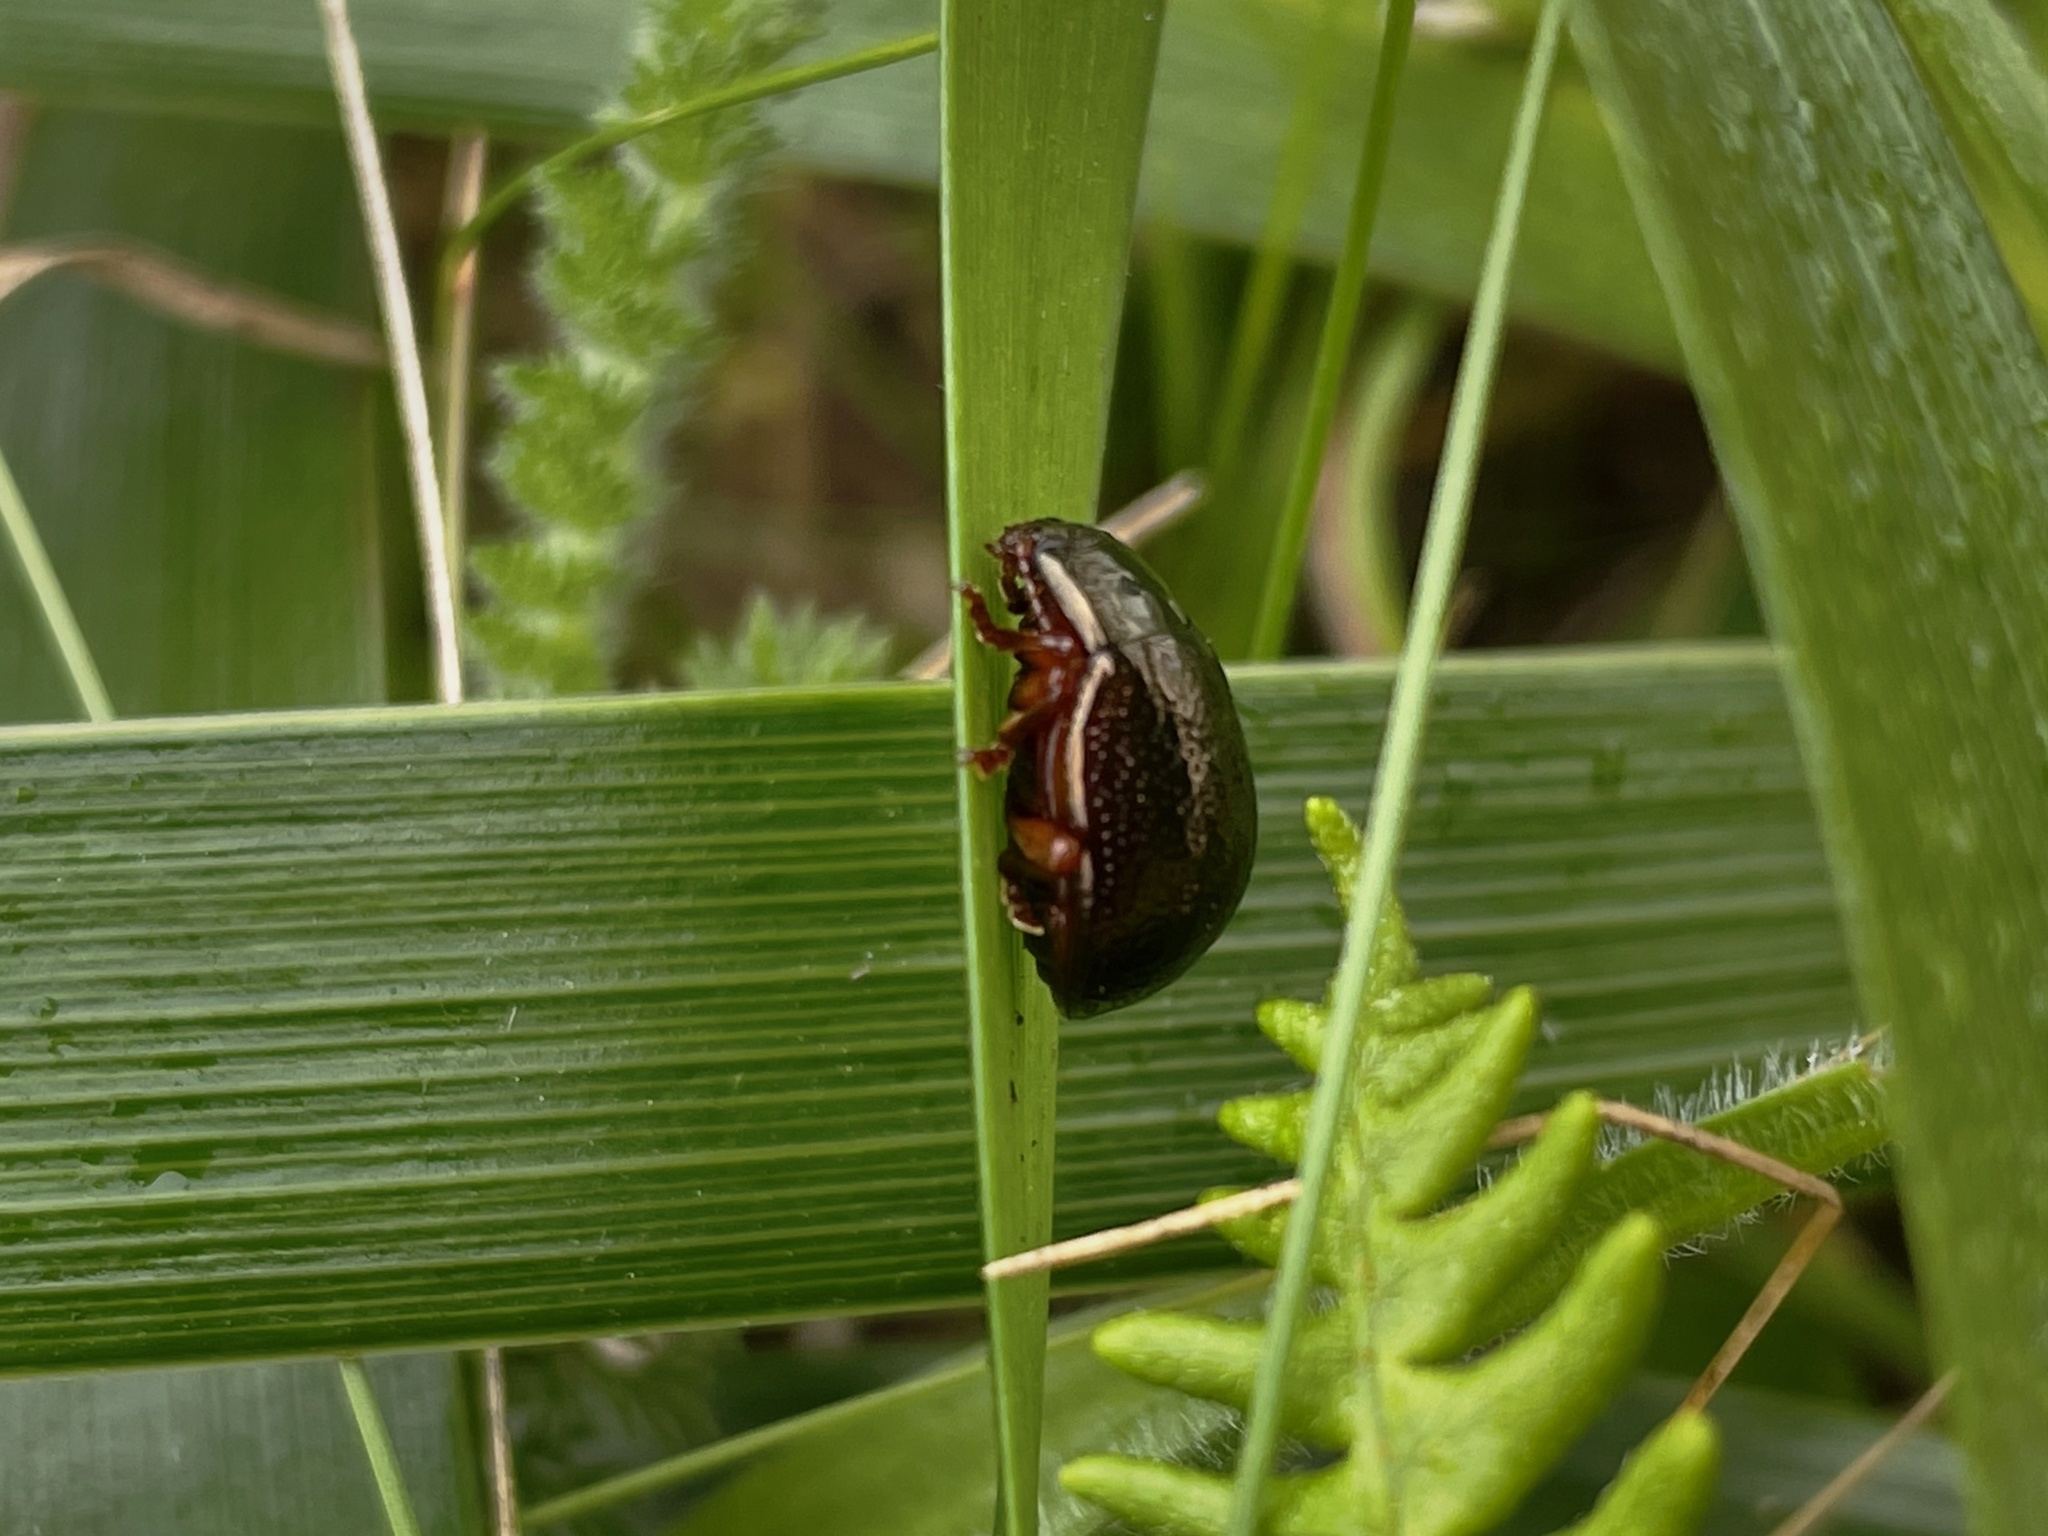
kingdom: Animalia
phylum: Arthropoda
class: Insecta
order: Coleoptera
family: Chrysomelidae
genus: Chrysolina
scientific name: Chrysolina bankii
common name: Leaf beetle
